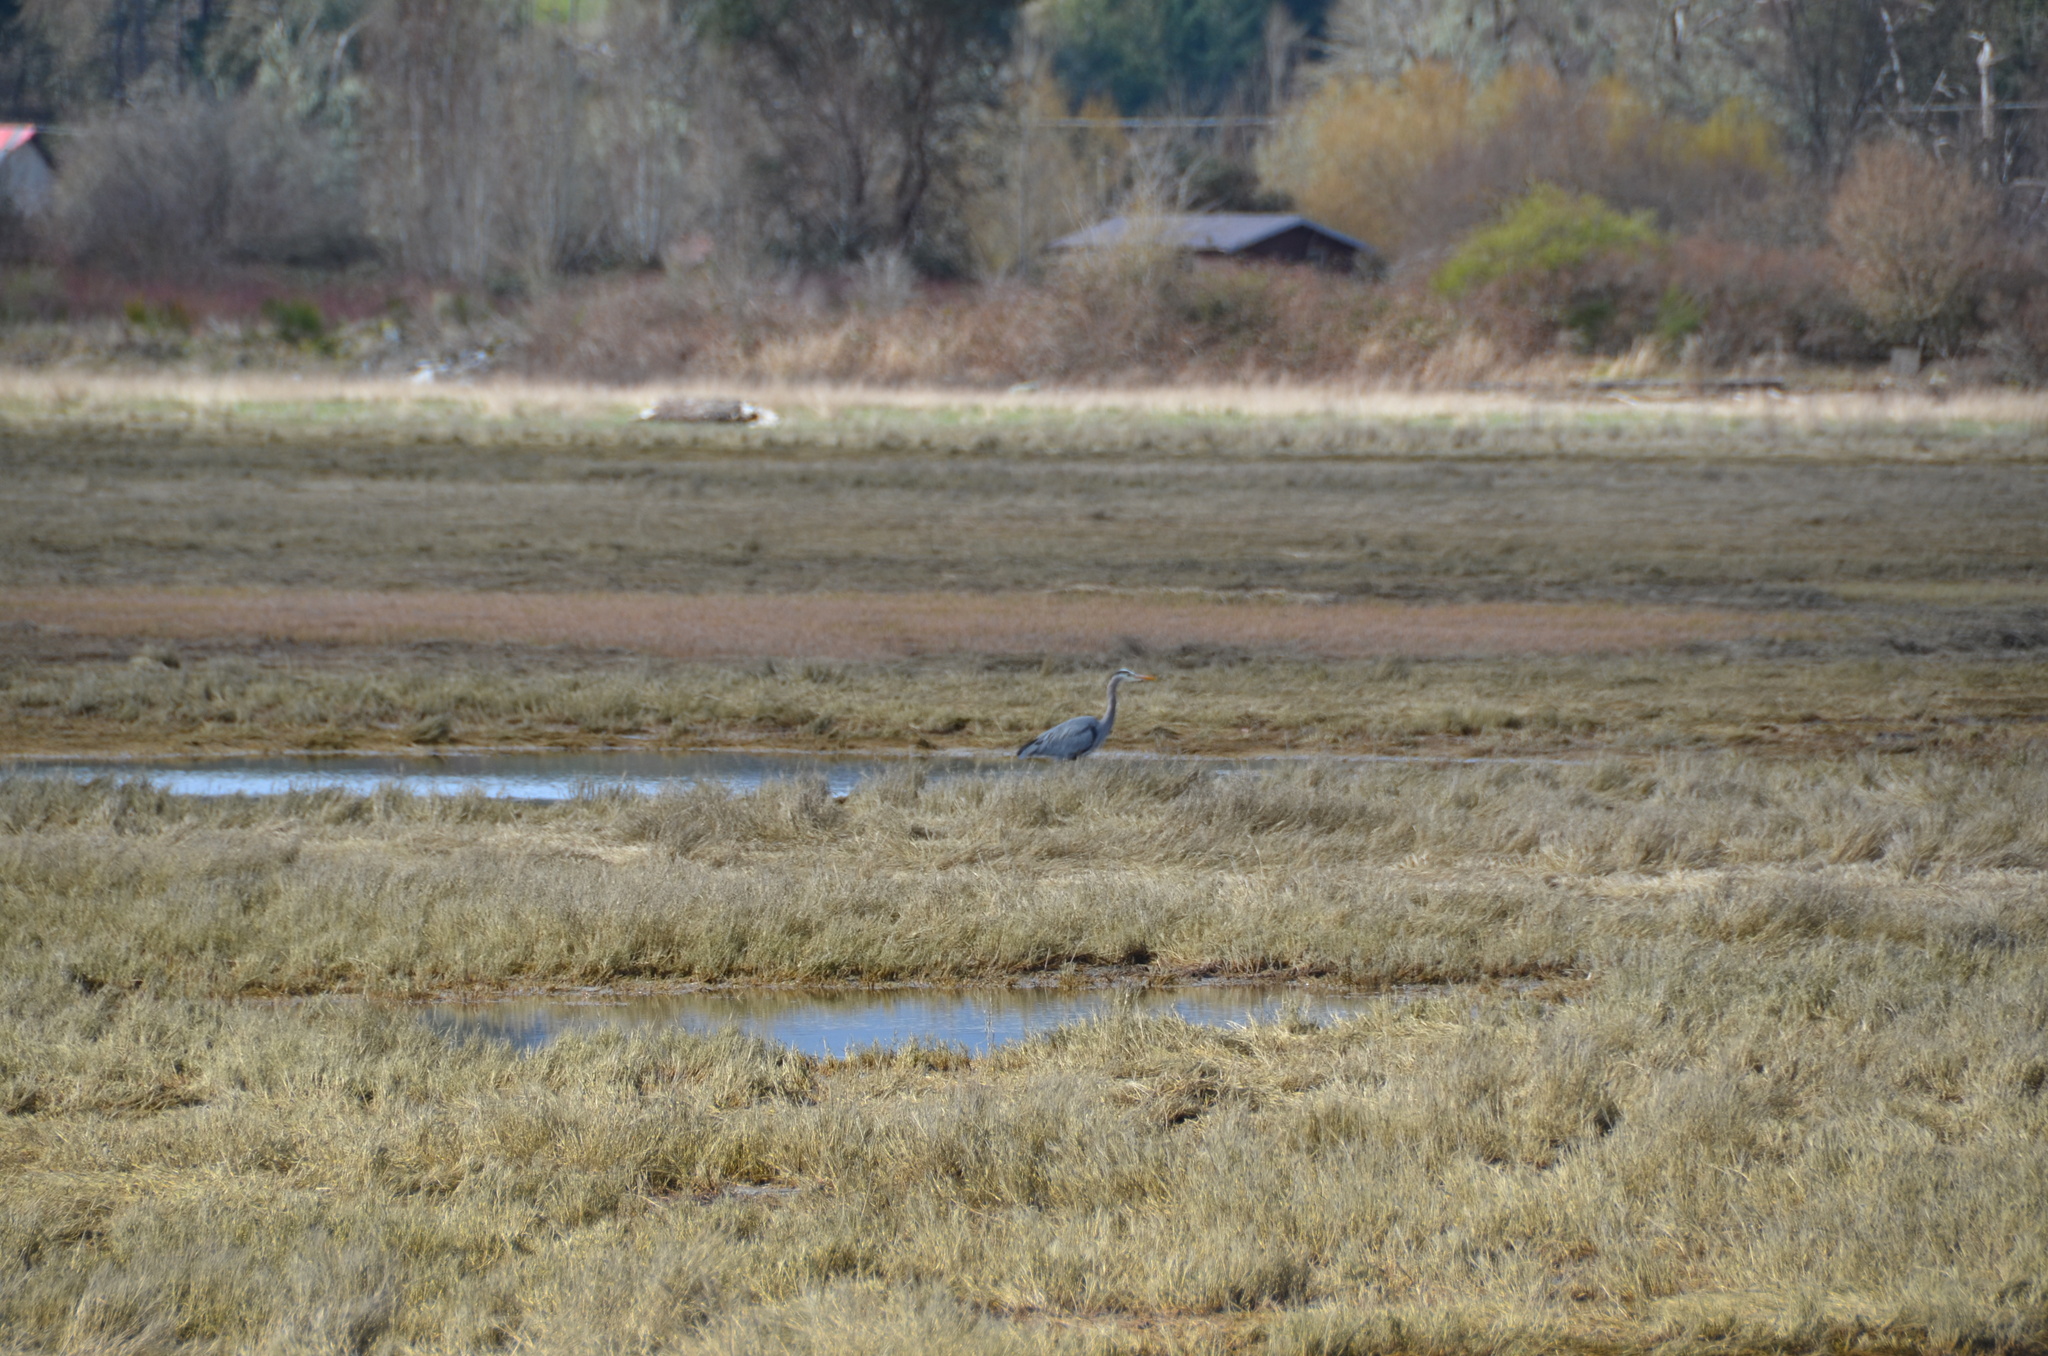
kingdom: Animalia
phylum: Chordata
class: Aves
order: Pelecaniformes
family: Ardeidae
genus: Ardea
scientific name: Ardea herodias
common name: Great blue heron
